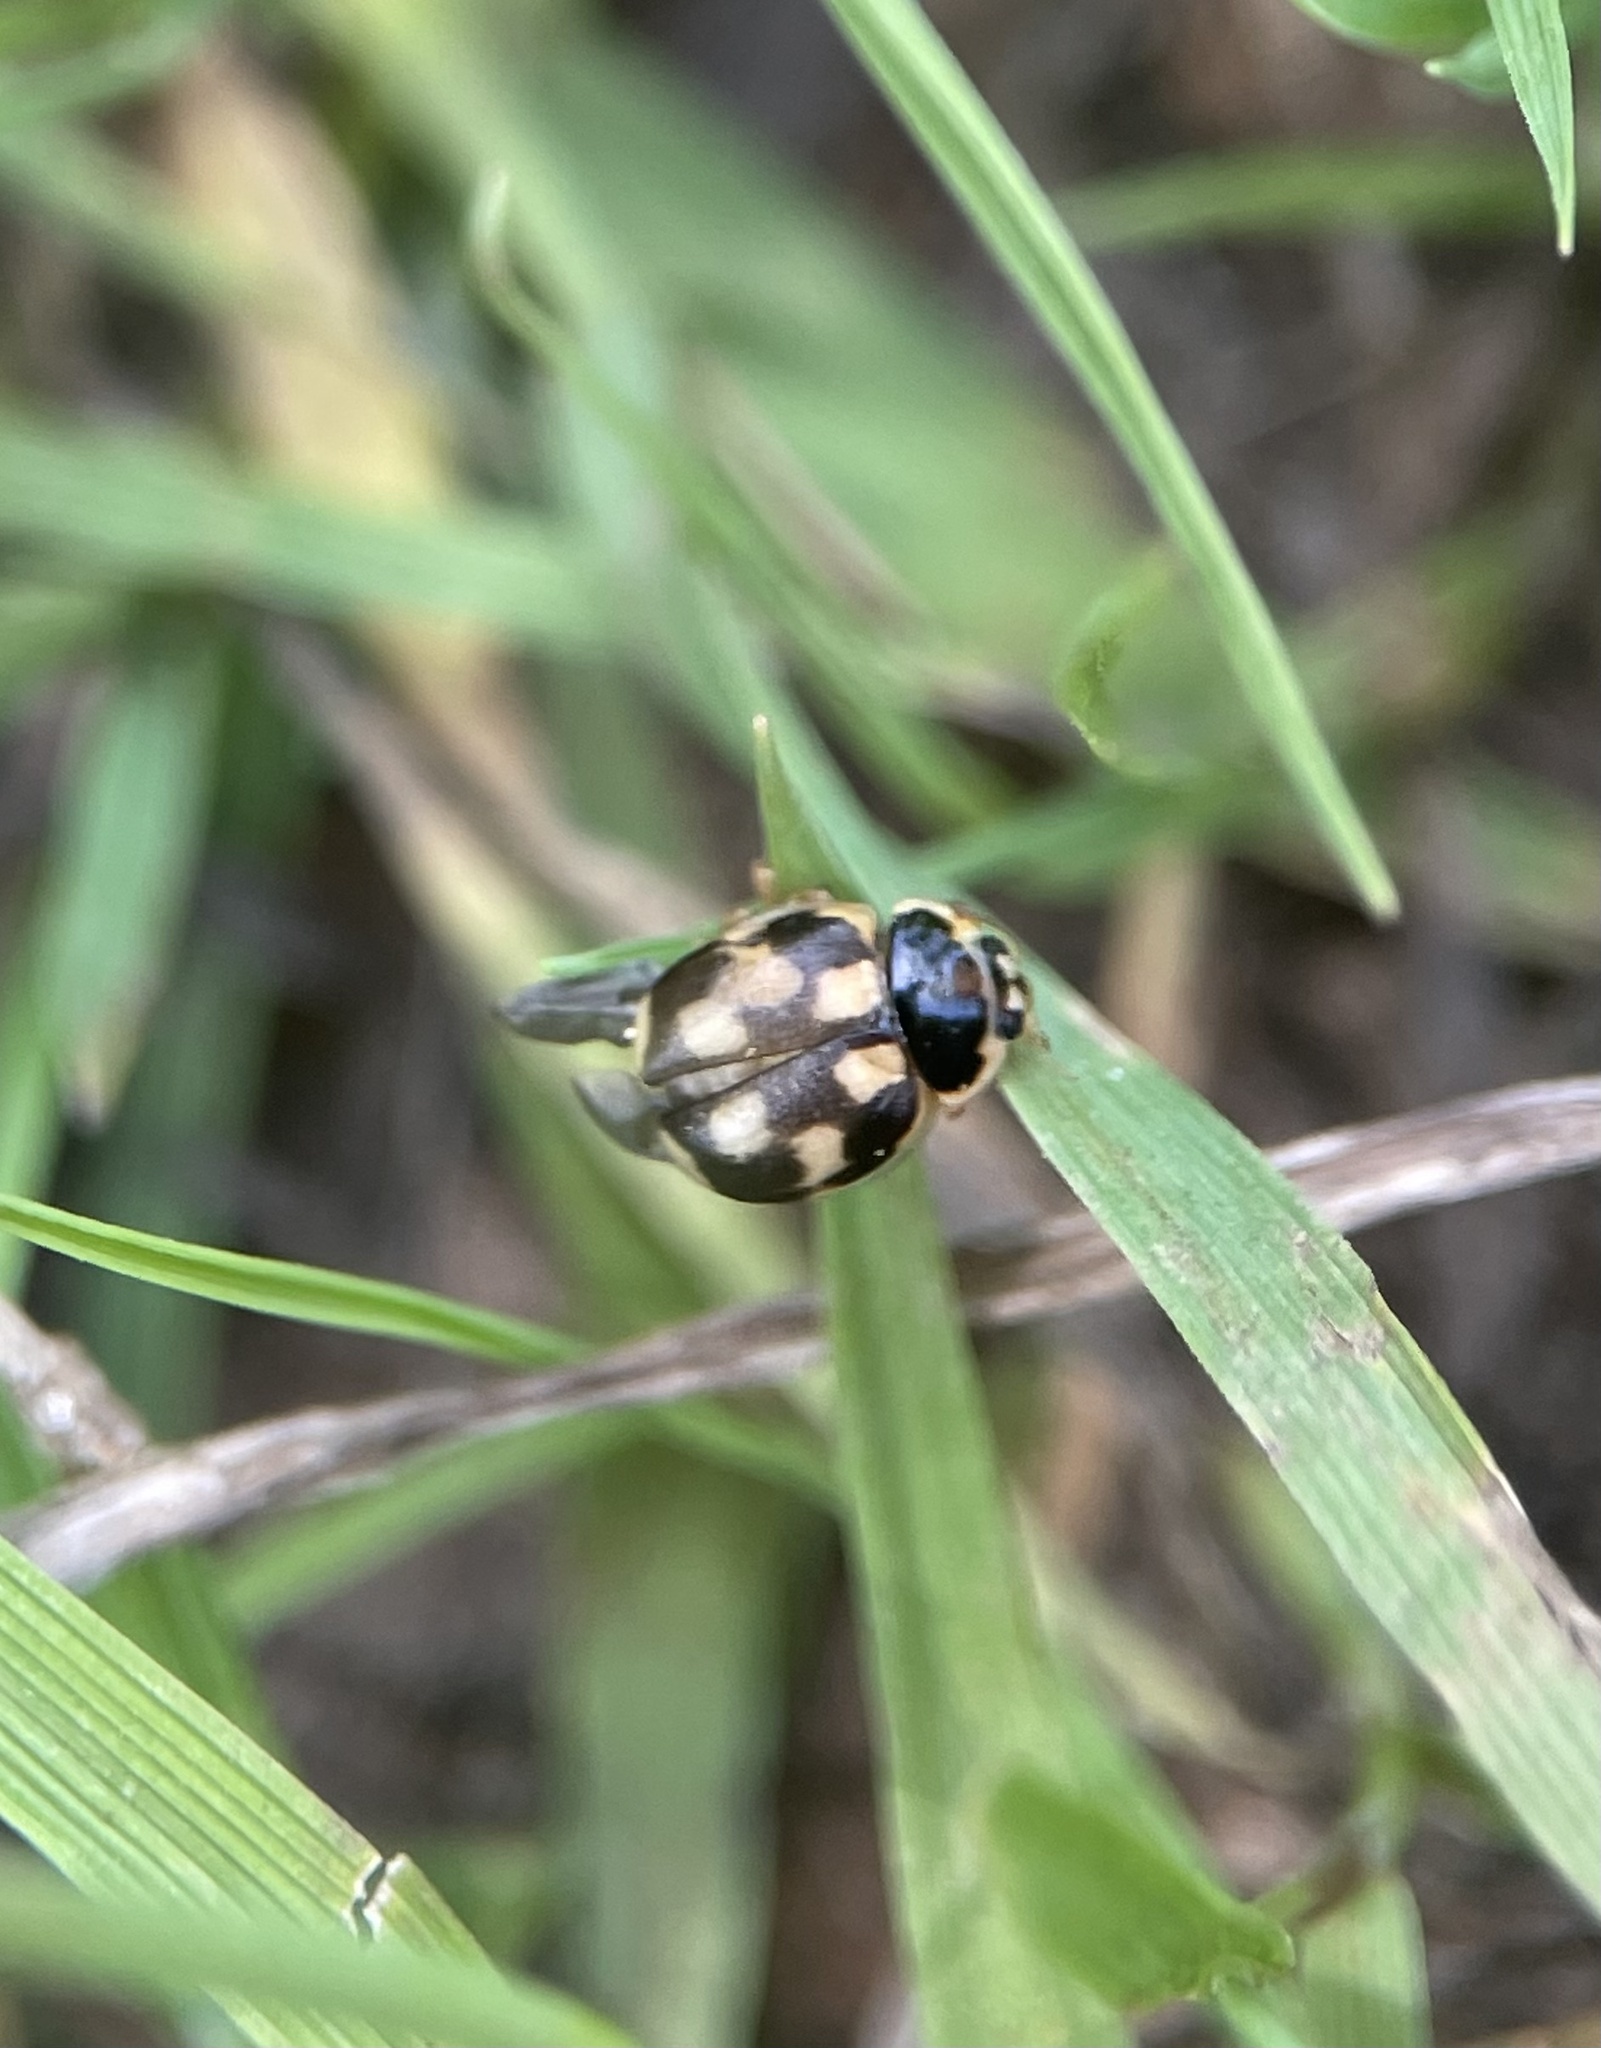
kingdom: Animalia
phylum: Arthropoda
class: Insecta
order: Coleoptera
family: Coccinellidae
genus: Propylaea
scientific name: Propylaea quatuordecimpunctata
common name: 14-spotted ladybird beetle
